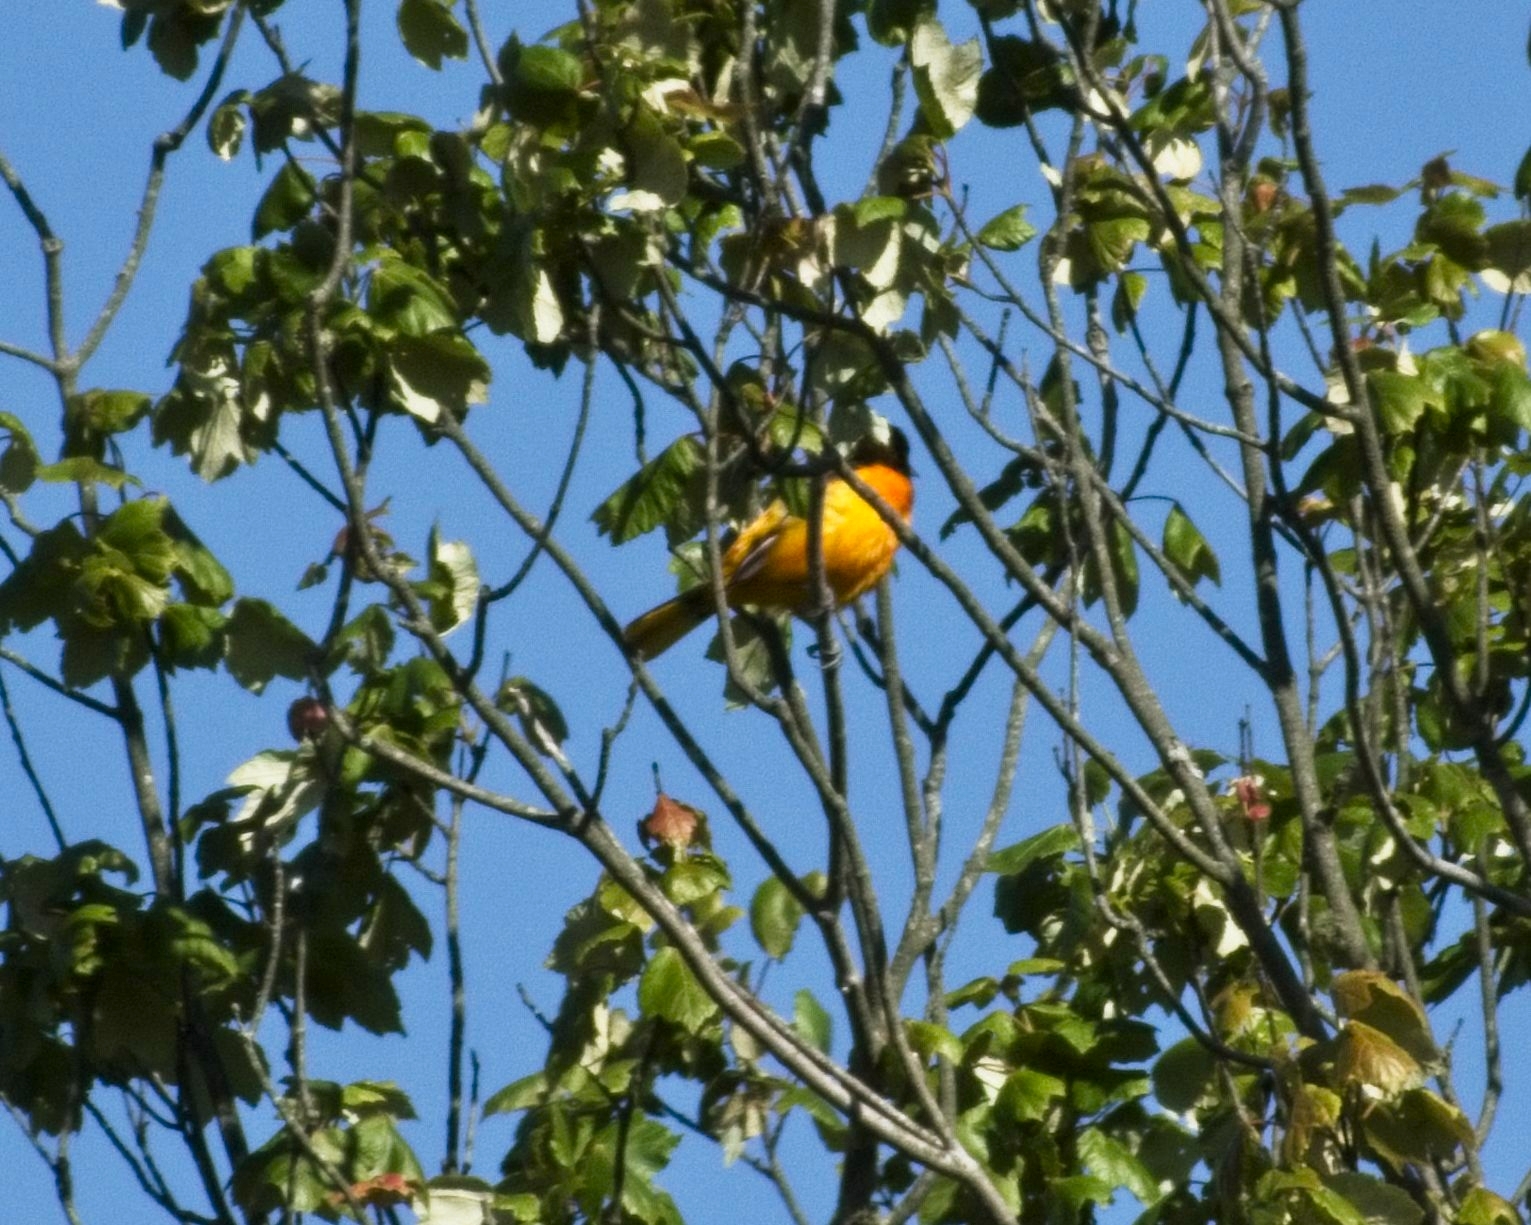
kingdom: Animalia
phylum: Chordata
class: Aves
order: Passeriformes
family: Icteridae
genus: Icterus
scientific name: Icterus galbula
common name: Baltimore oriole
